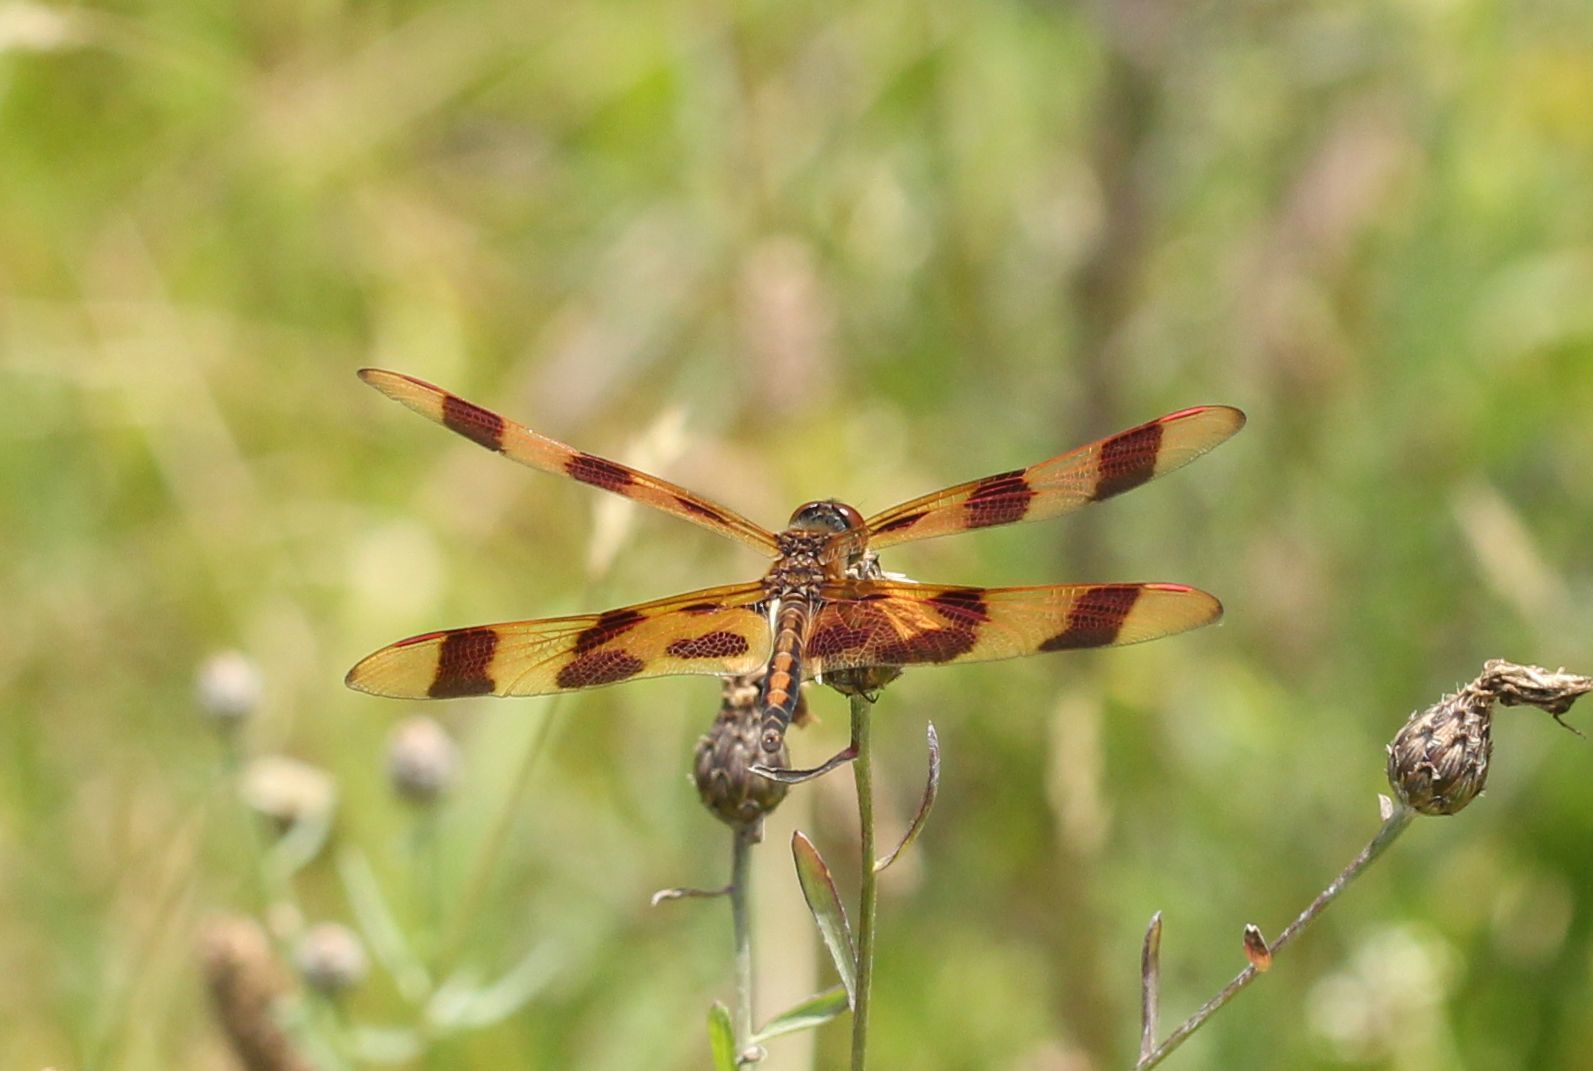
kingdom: Animalia
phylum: Arthropoda
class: Insecta
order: Odonata
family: Libellulidae
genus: Celithemis
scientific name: Celithemis eponina
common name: Halloween pennant
